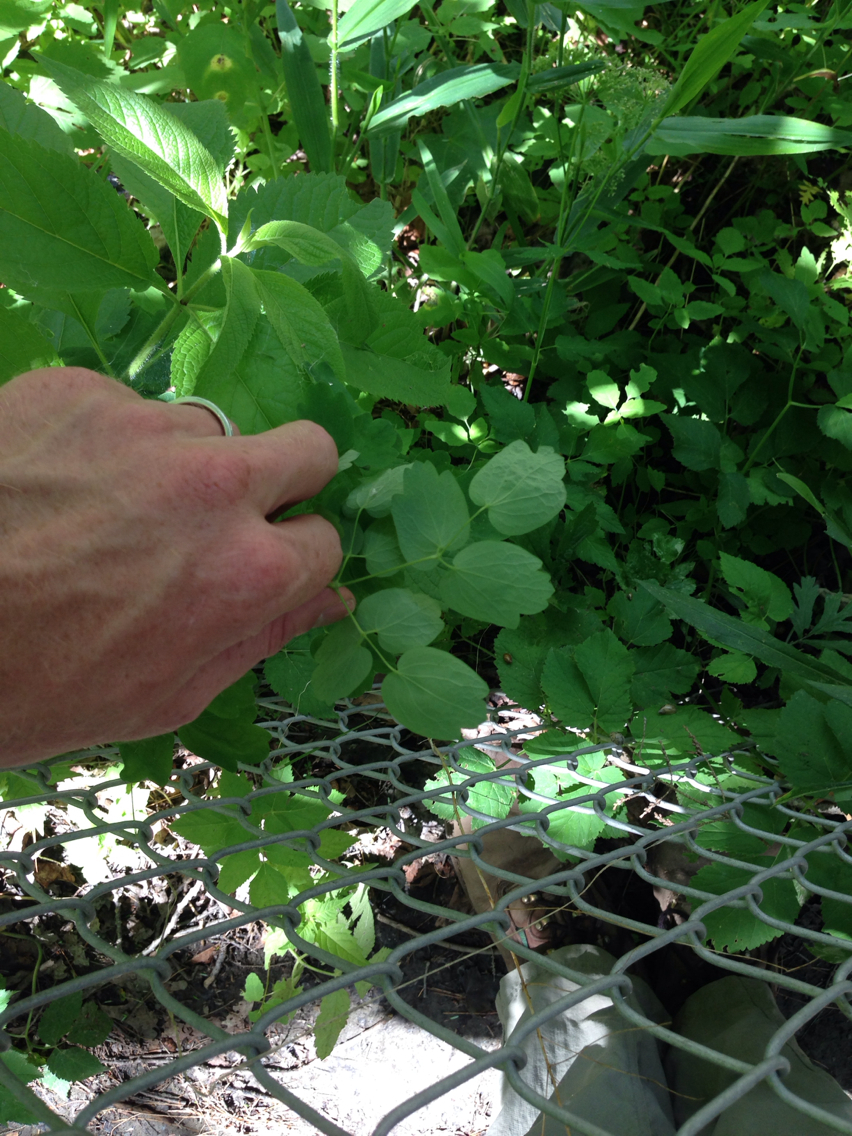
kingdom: Plantae
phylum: Tracheophyta
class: Magnoliopsida
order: Ranunculales
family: Ranunculaceae
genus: Thalictrum
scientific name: Thalictrum pubescens
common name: King-of-the-meadow
